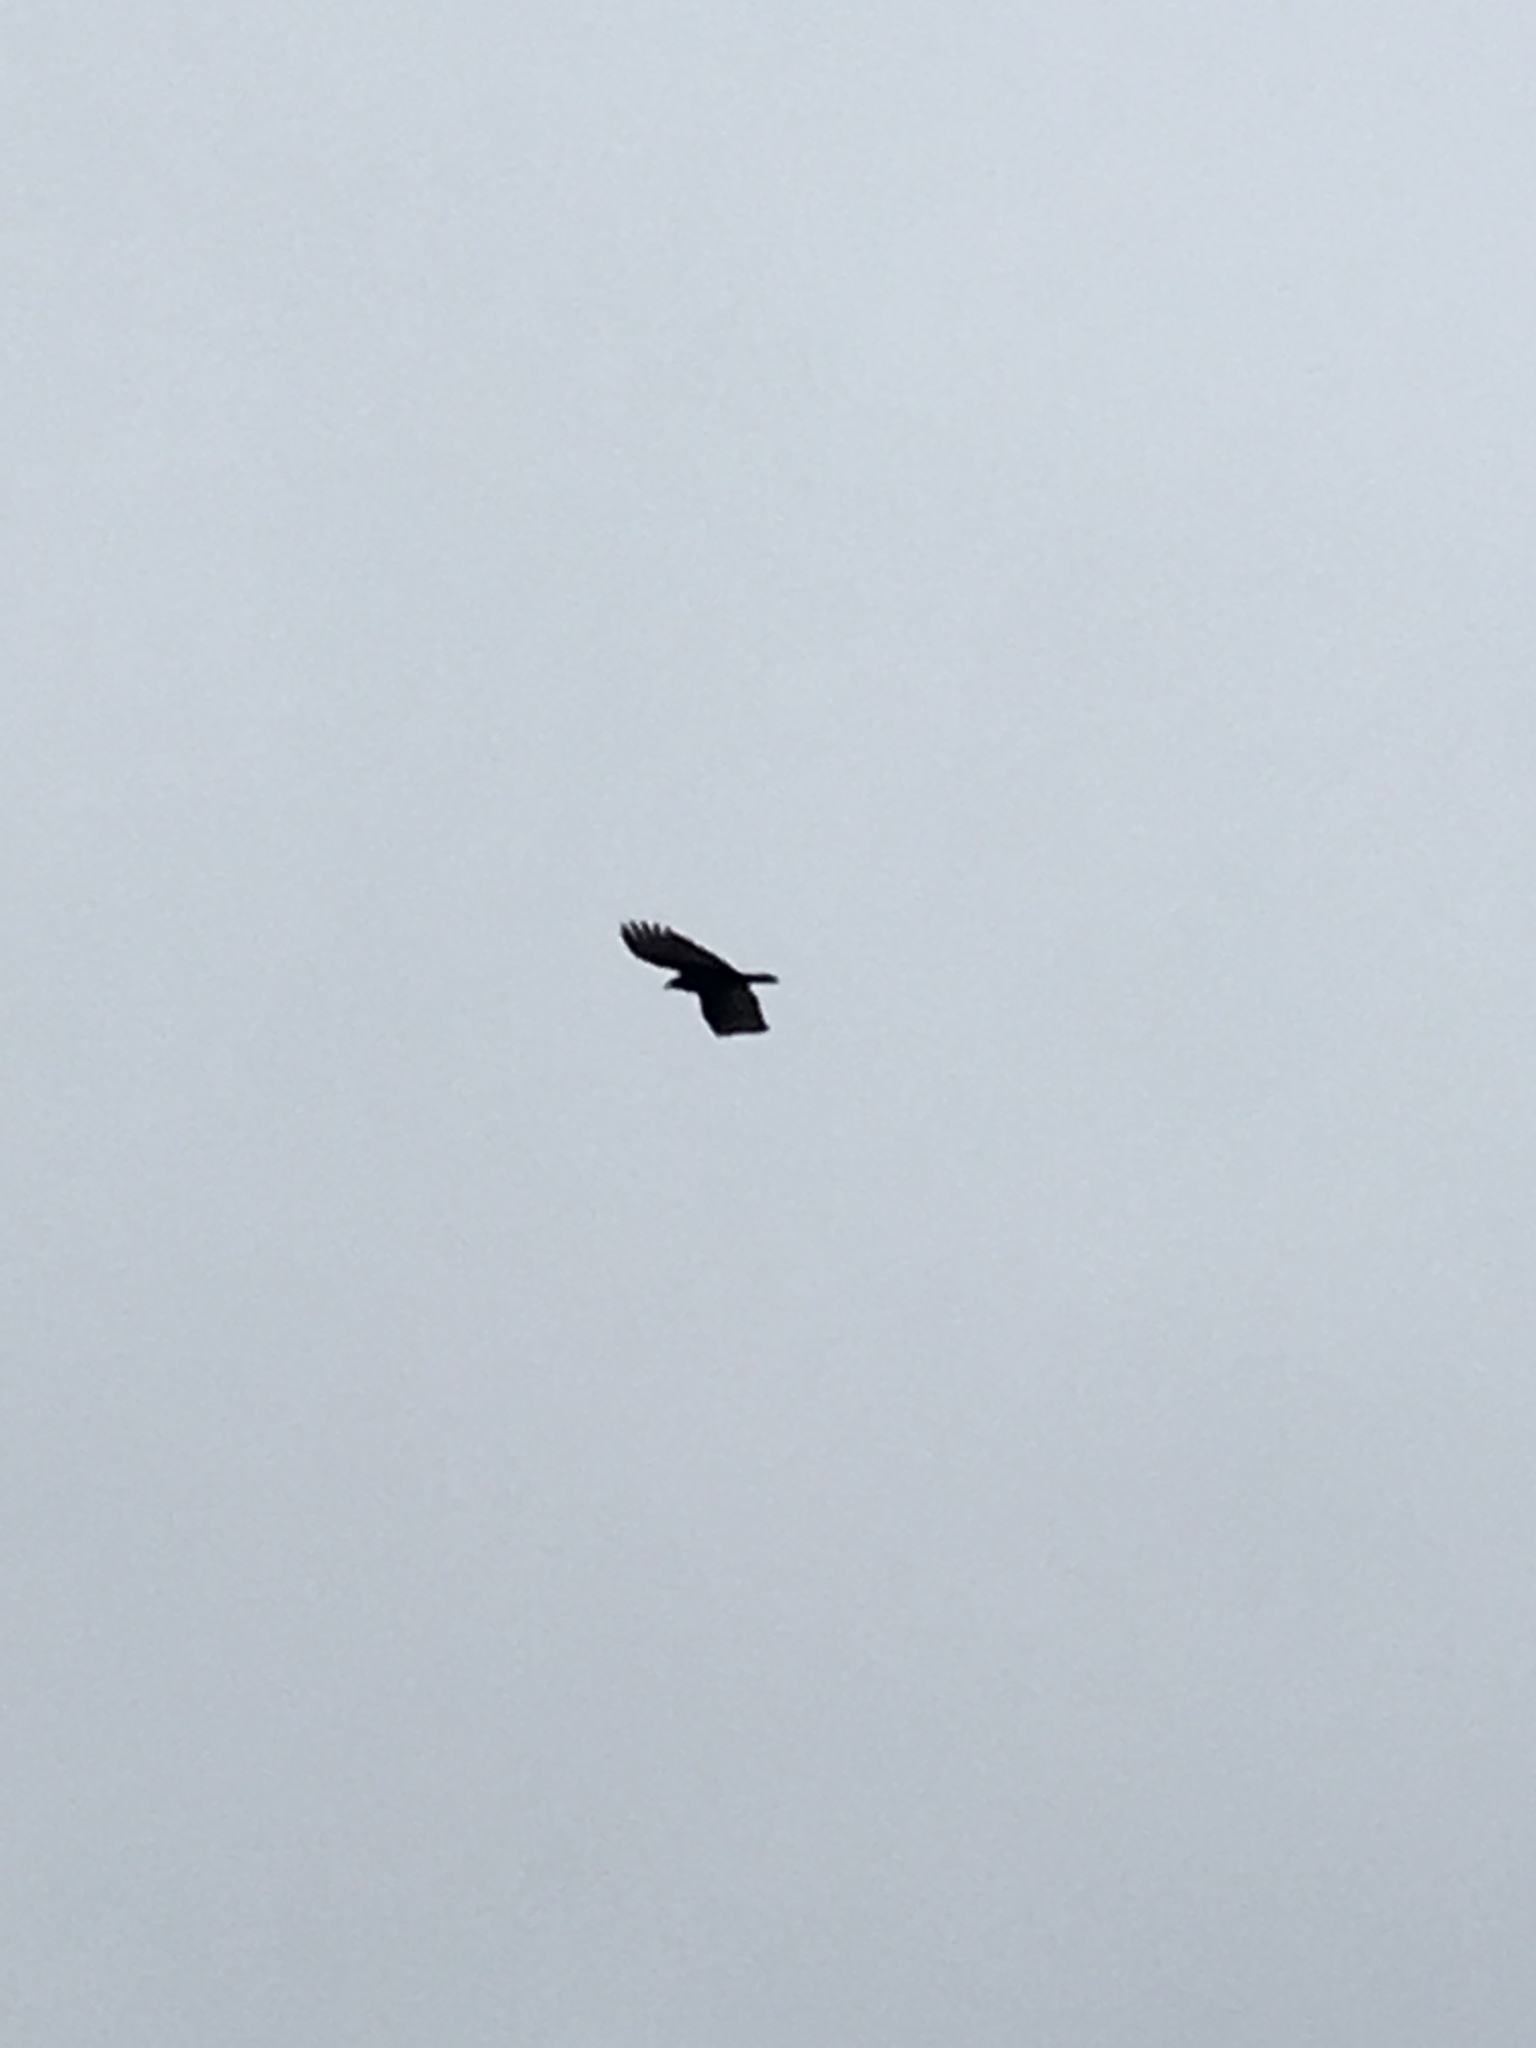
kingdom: Animalia
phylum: Chordata
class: Aves
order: Accipitriformes
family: Cathartidae
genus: Cathartes
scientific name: Cathartes aura
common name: Turkey vulture
